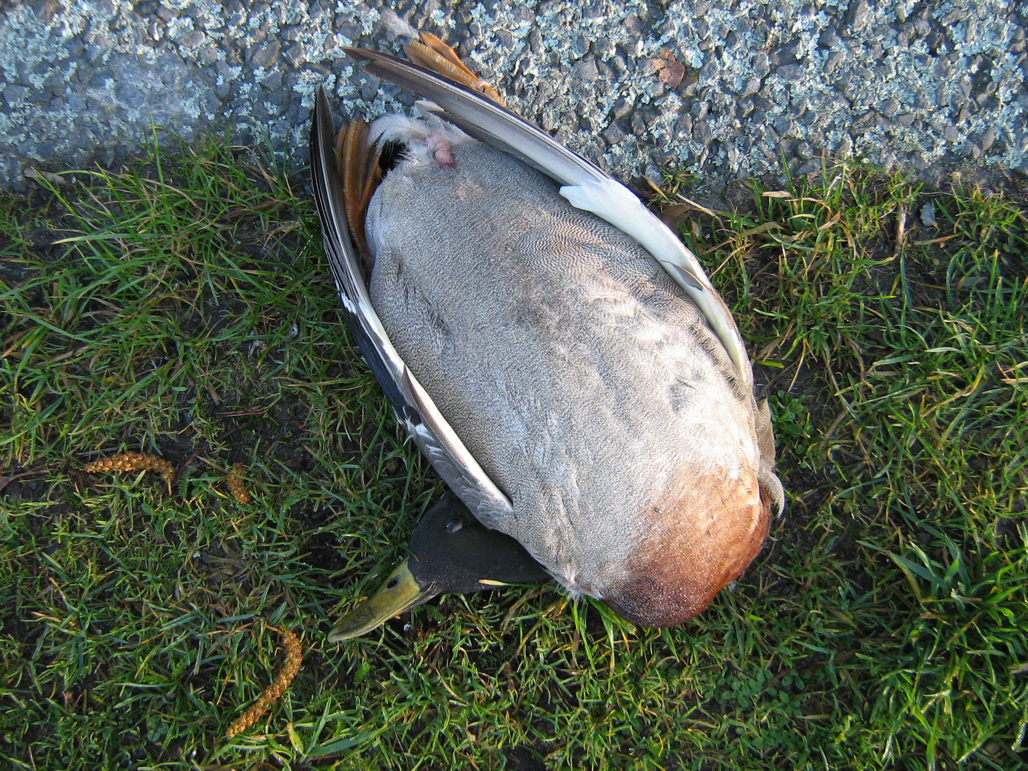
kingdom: Animalia
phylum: Chordata
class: Aves
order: Anseriformes
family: Anatidae
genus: Anas
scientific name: Anas platyrhynchos
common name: Mallard
